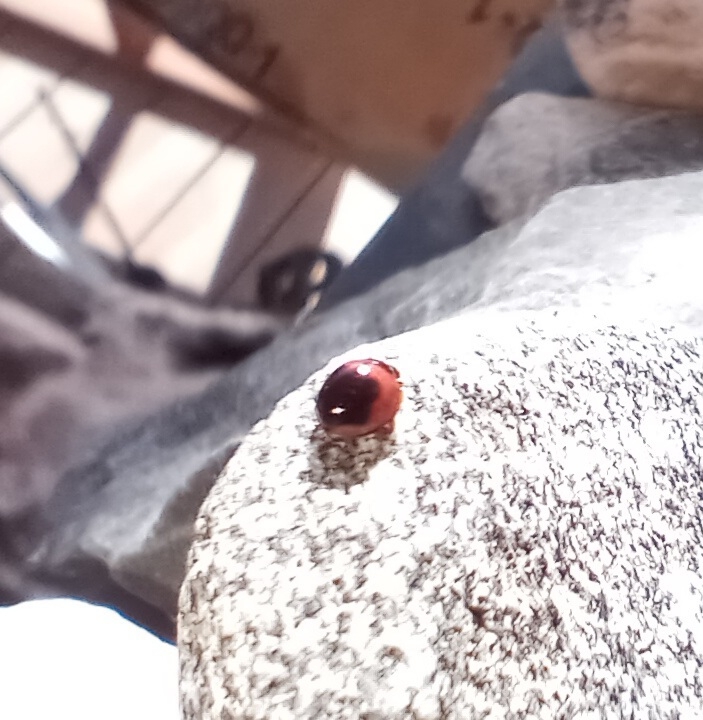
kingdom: Animalia
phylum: Arthropoda
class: Insecta
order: Coleoptera
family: Coccinellidae
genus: Exochomus
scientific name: Exochomus subrotundus
